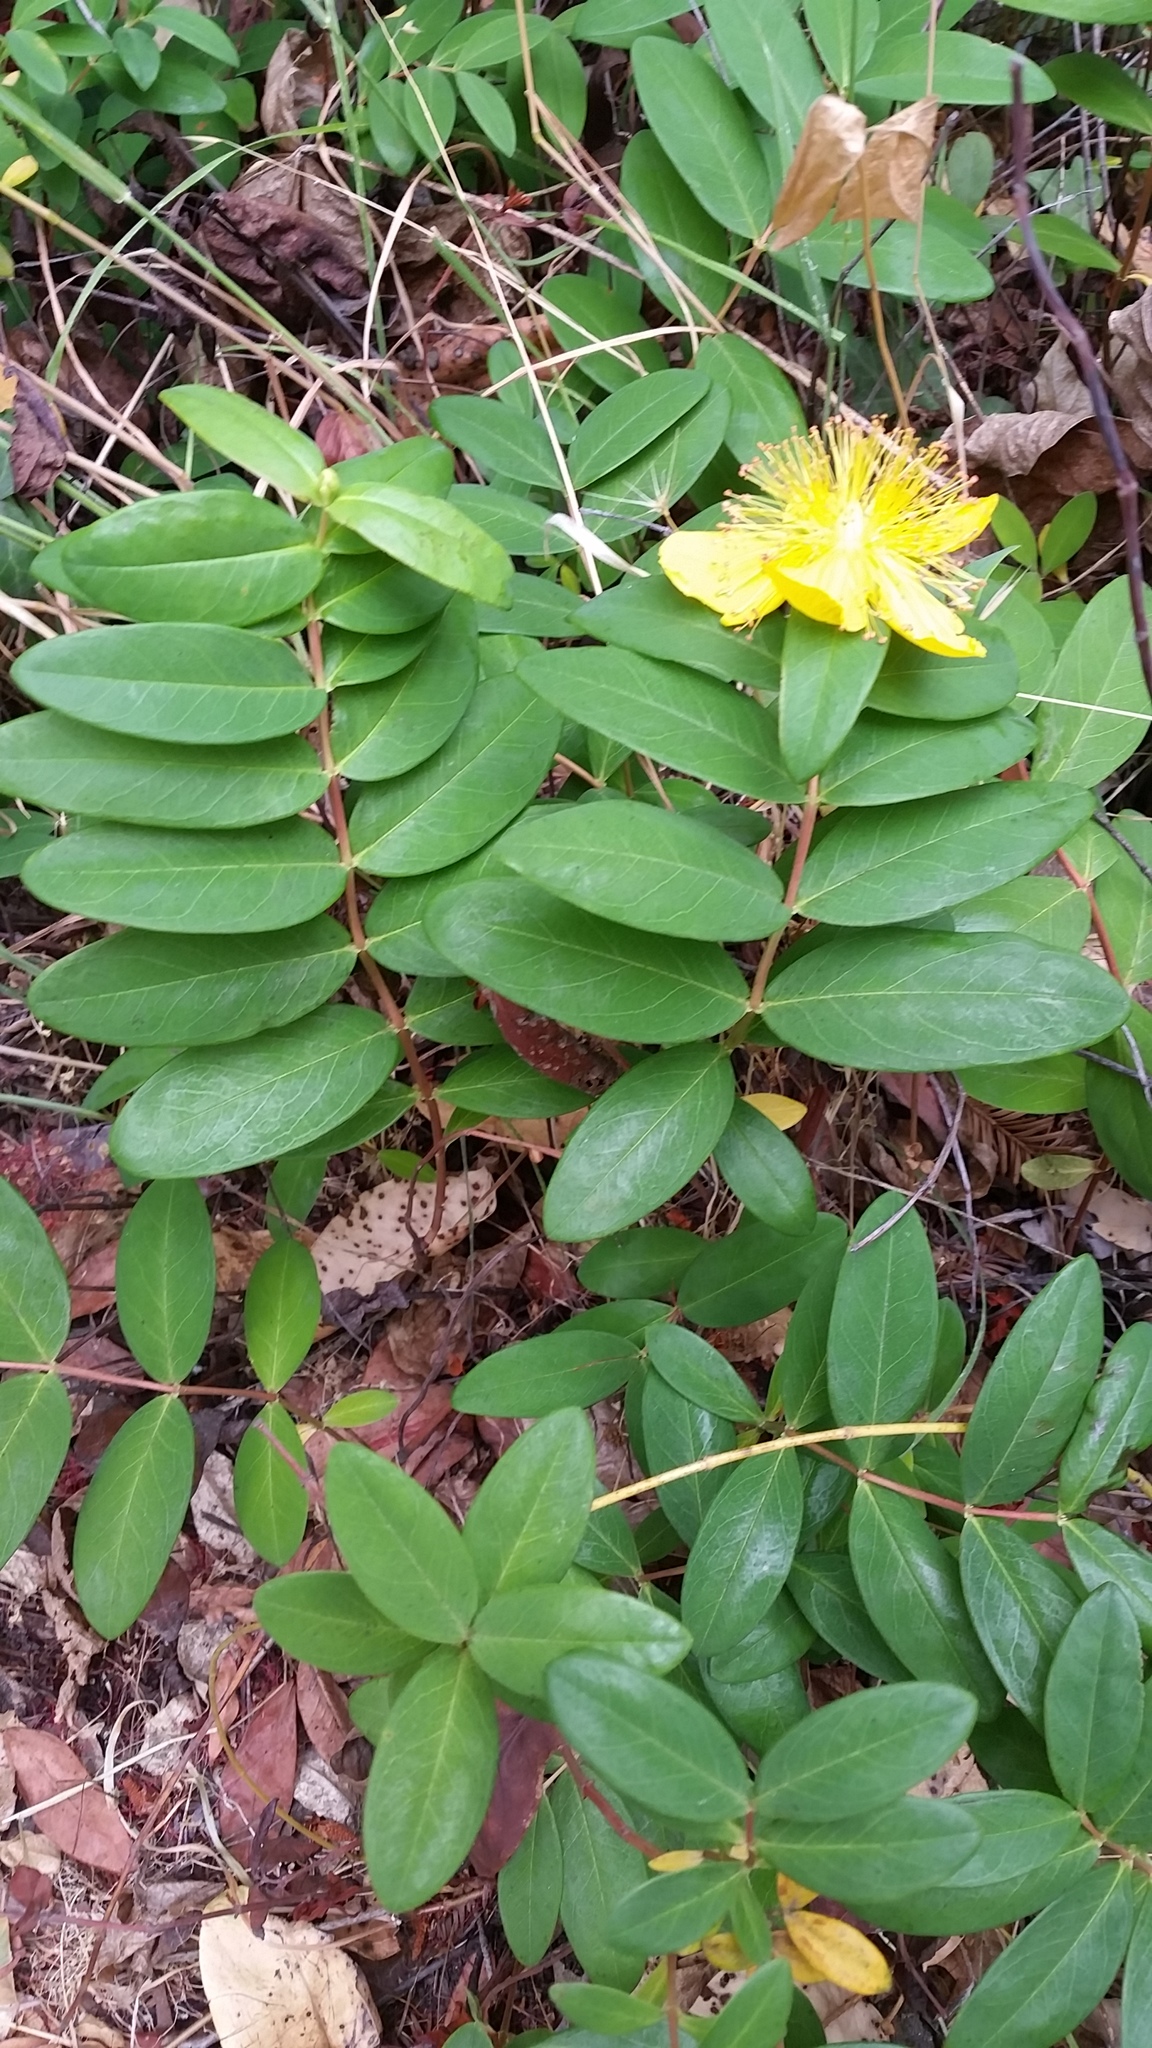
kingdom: Plantae
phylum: Tracheophyta
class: Magnoliopsida
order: Malpighiales
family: Hypericaceae
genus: Hypericum
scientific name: Hypericum calycinum
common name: Rose-of-sharon
